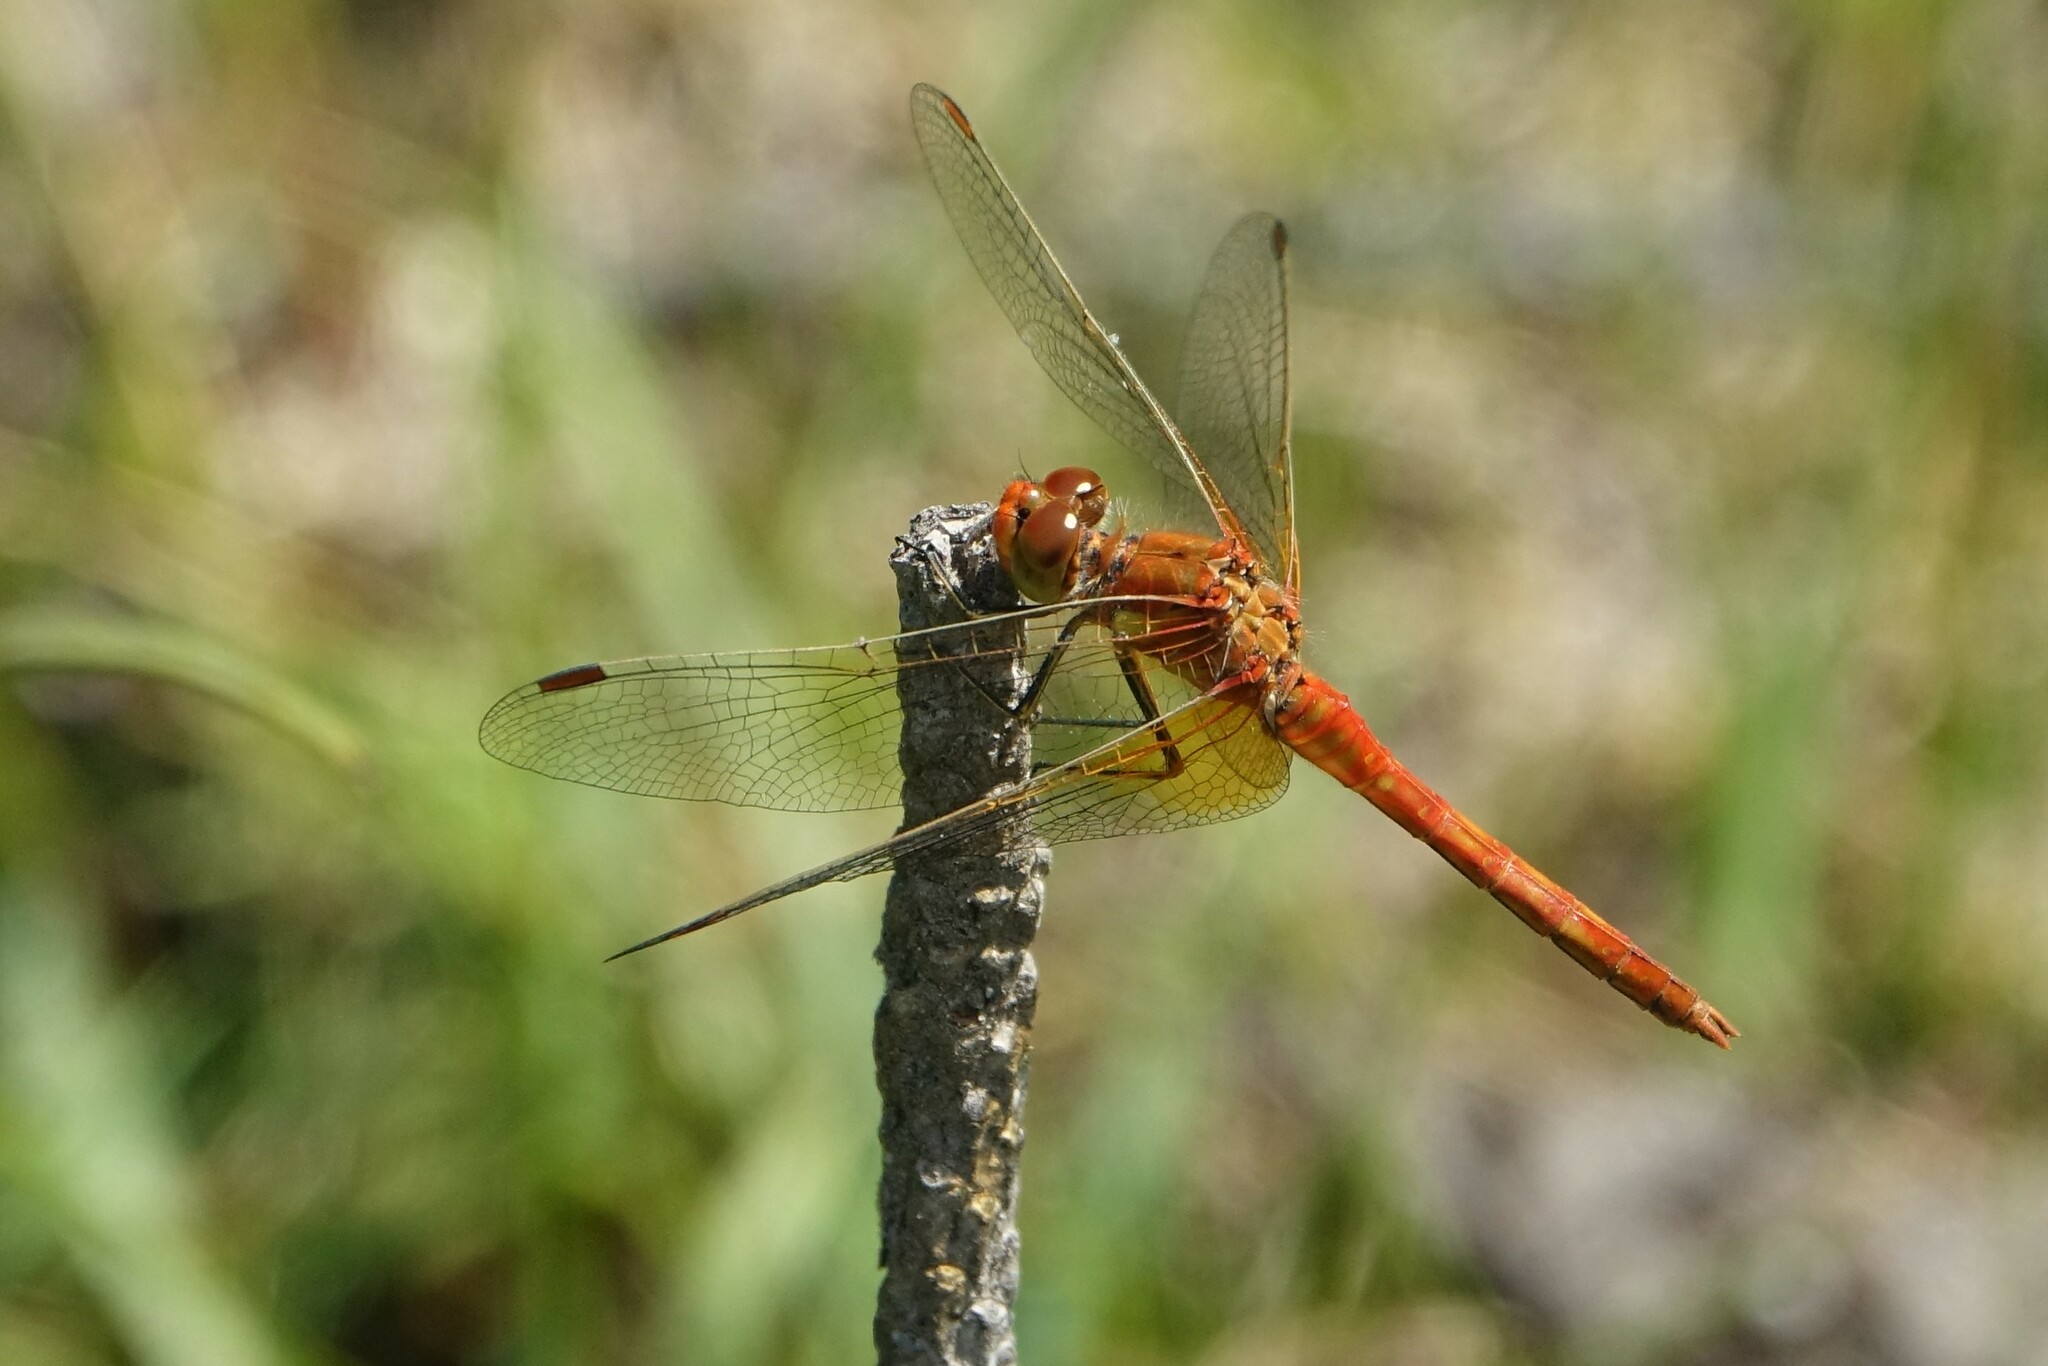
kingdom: Animalia
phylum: Arthropoda
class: Insecta
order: Odonata
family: Libellulidae
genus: Sympetrum
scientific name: Sympetrum flaveolum
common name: Yellow-winged darter
